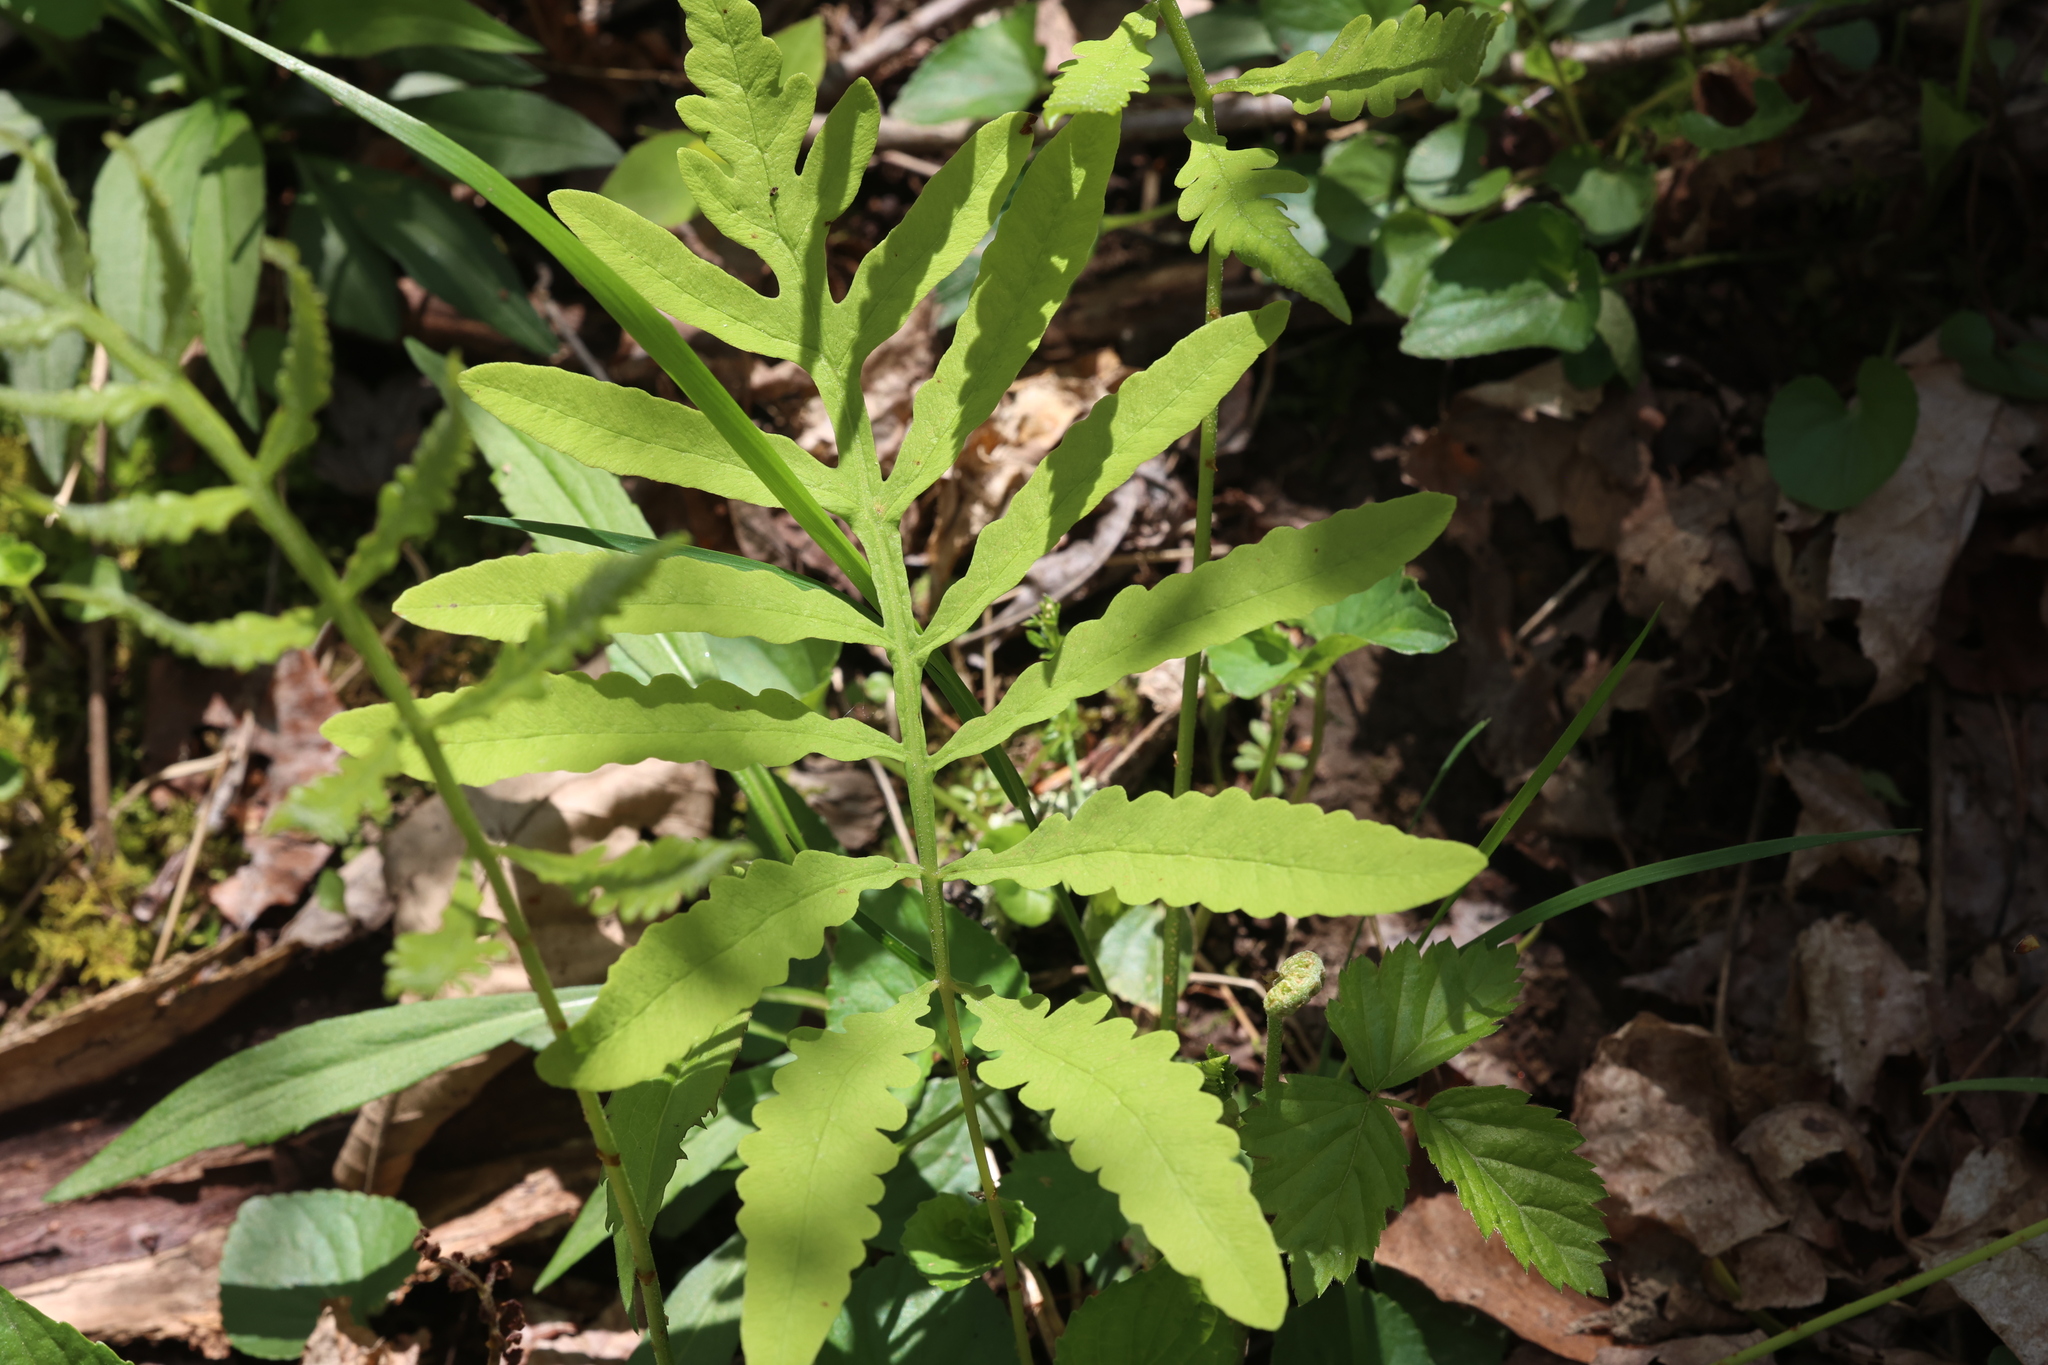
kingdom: Plantae
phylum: Tracheophyta
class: Polypodiopsida
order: Polypodiales
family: Onocleaceae
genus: Onoclea
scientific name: Onoclea sensibilis
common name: Sensitive fern
